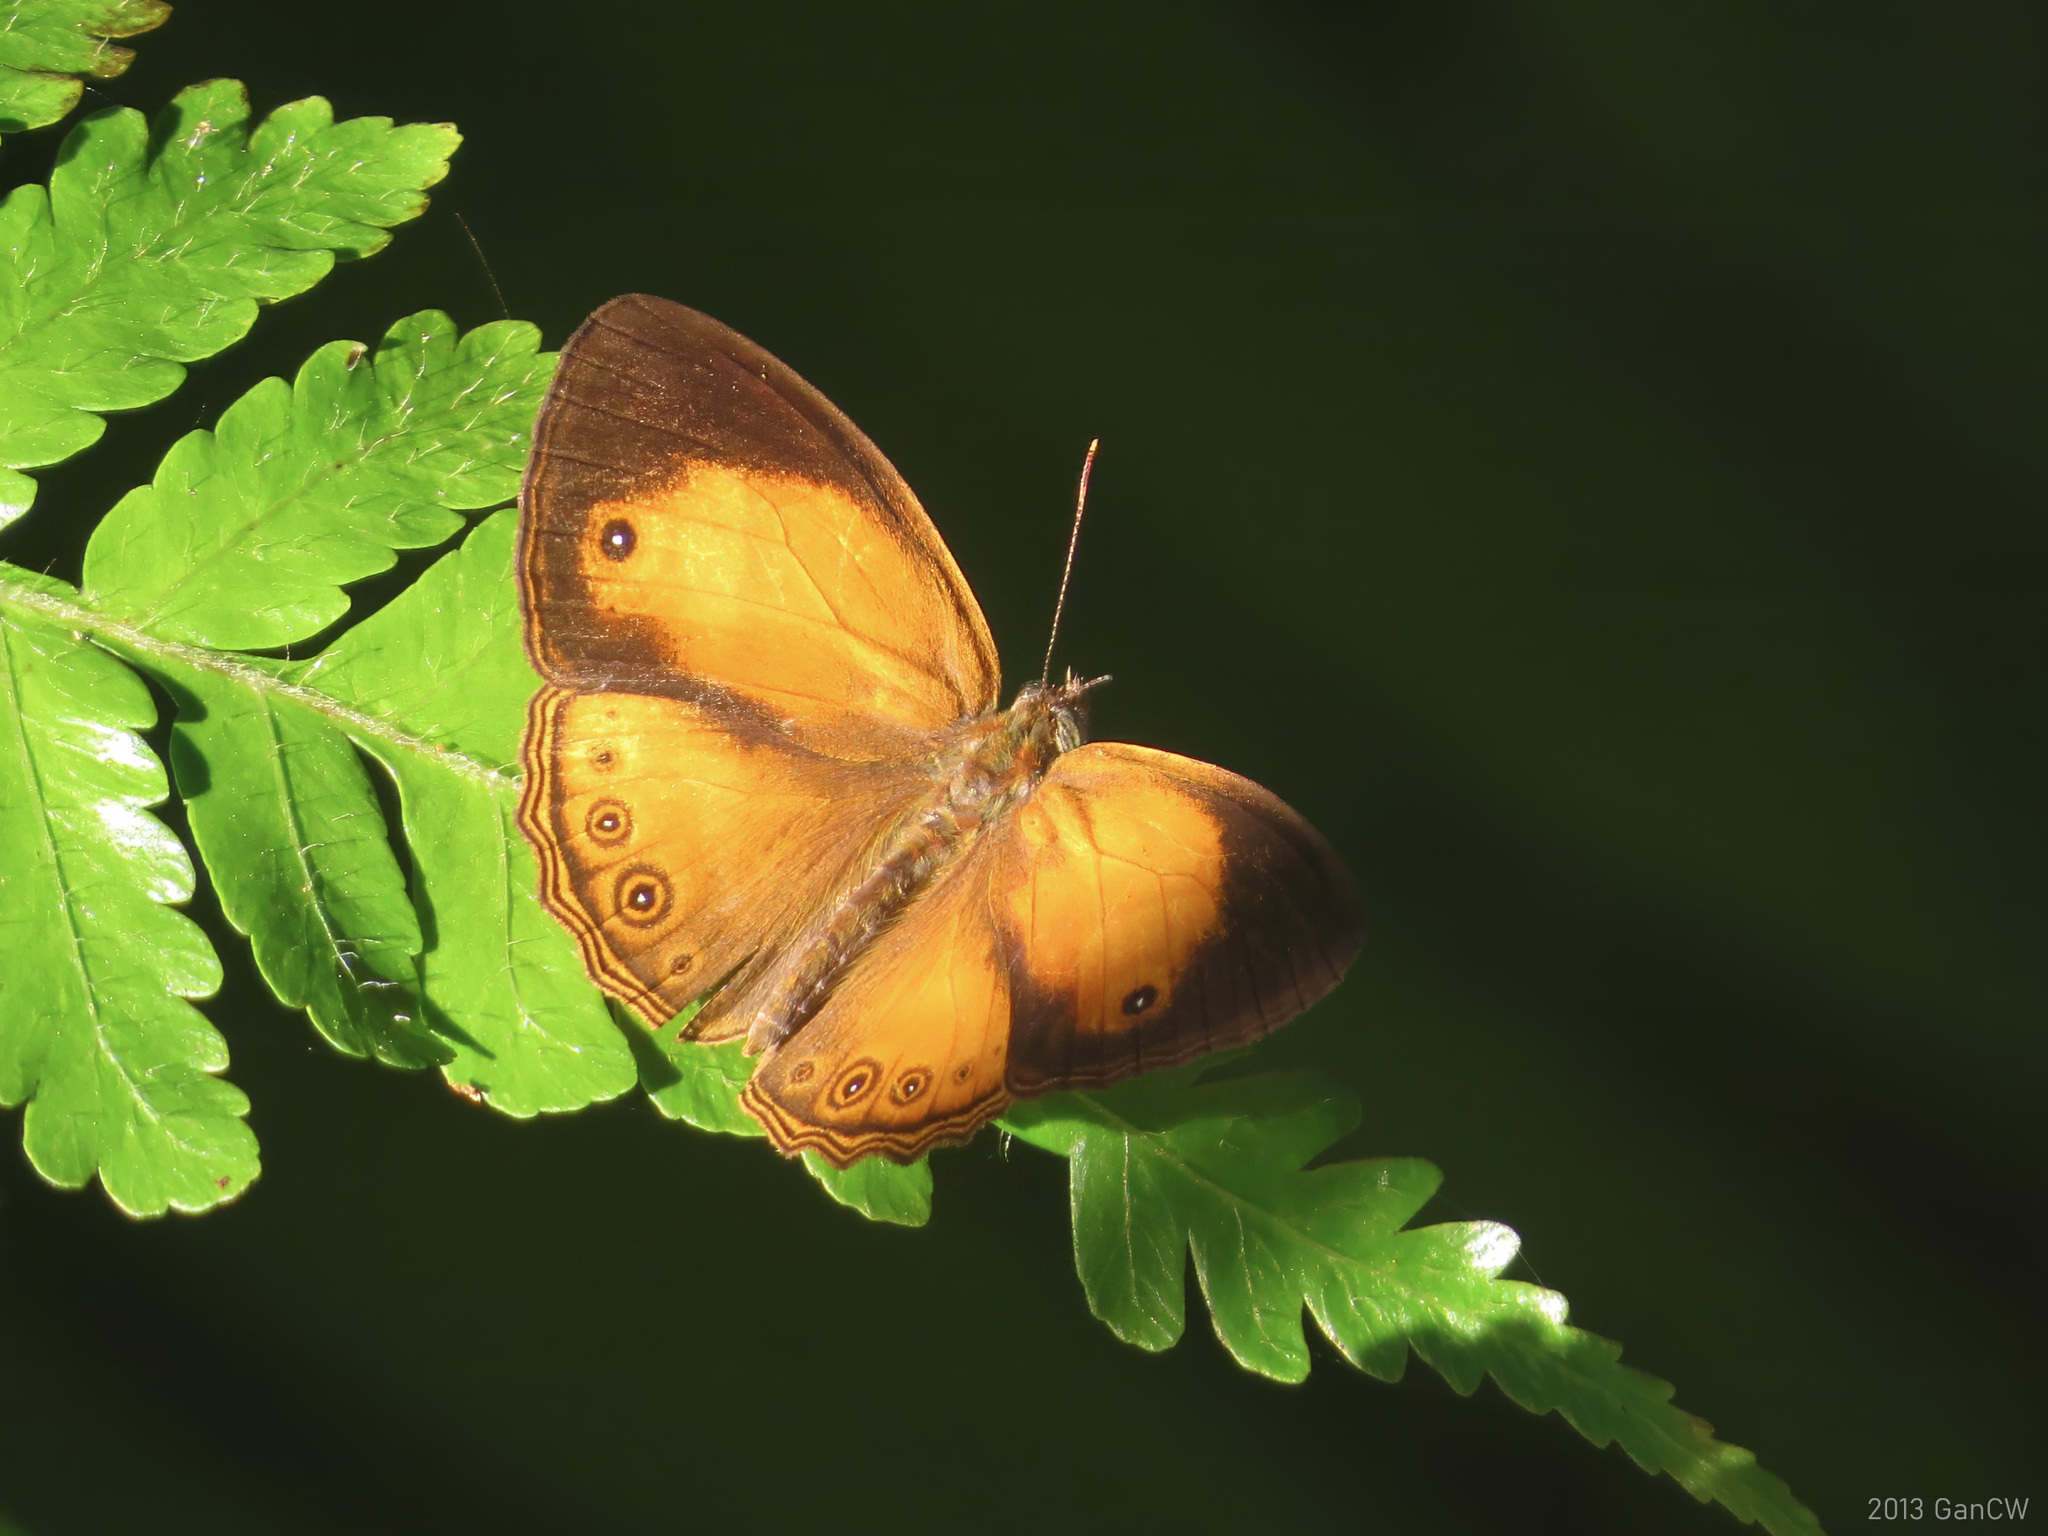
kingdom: Animalia
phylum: Arthropoda
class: Insecta
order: Lepidoptera
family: Nymphalidae
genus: Mycalesis
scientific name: Mycalesis anapita
